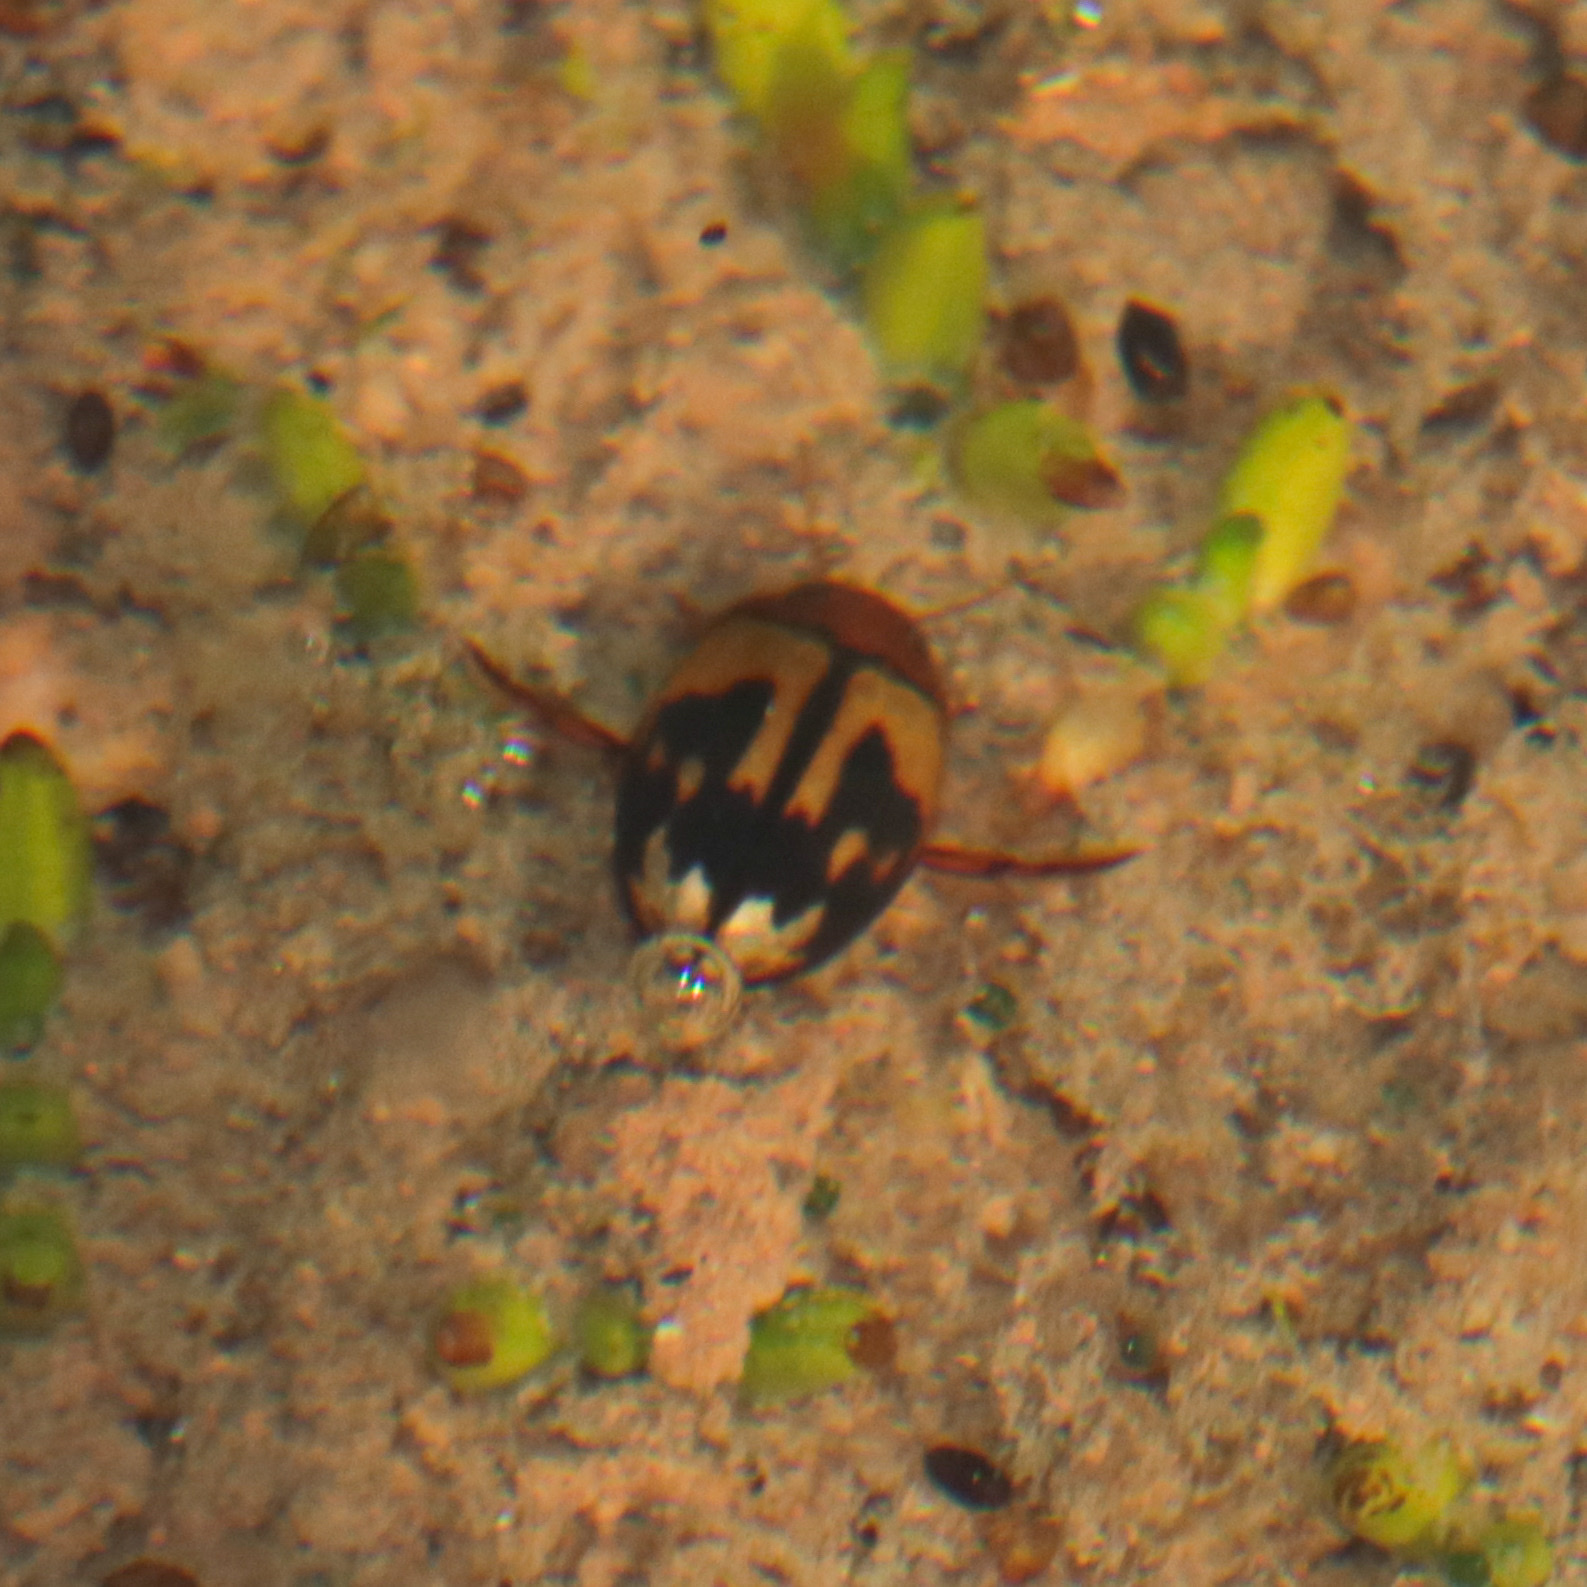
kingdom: Animalia
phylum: Arthropoda
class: Insecta
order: Coleoptera
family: Dytiscidae
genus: Megaporus
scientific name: Megaporus howittii
